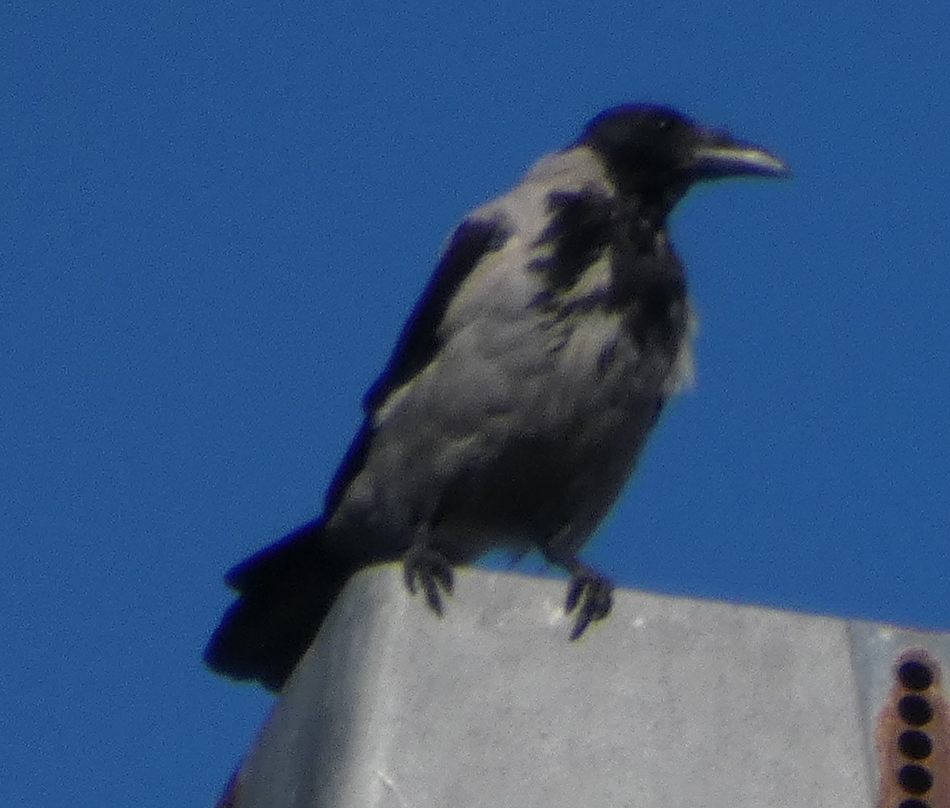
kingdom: Animalia
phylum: Chordata
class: Aves
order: Passeriformes
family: Corvidae
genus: Corvus
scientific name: Corvus cornix
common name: Hooded crow
